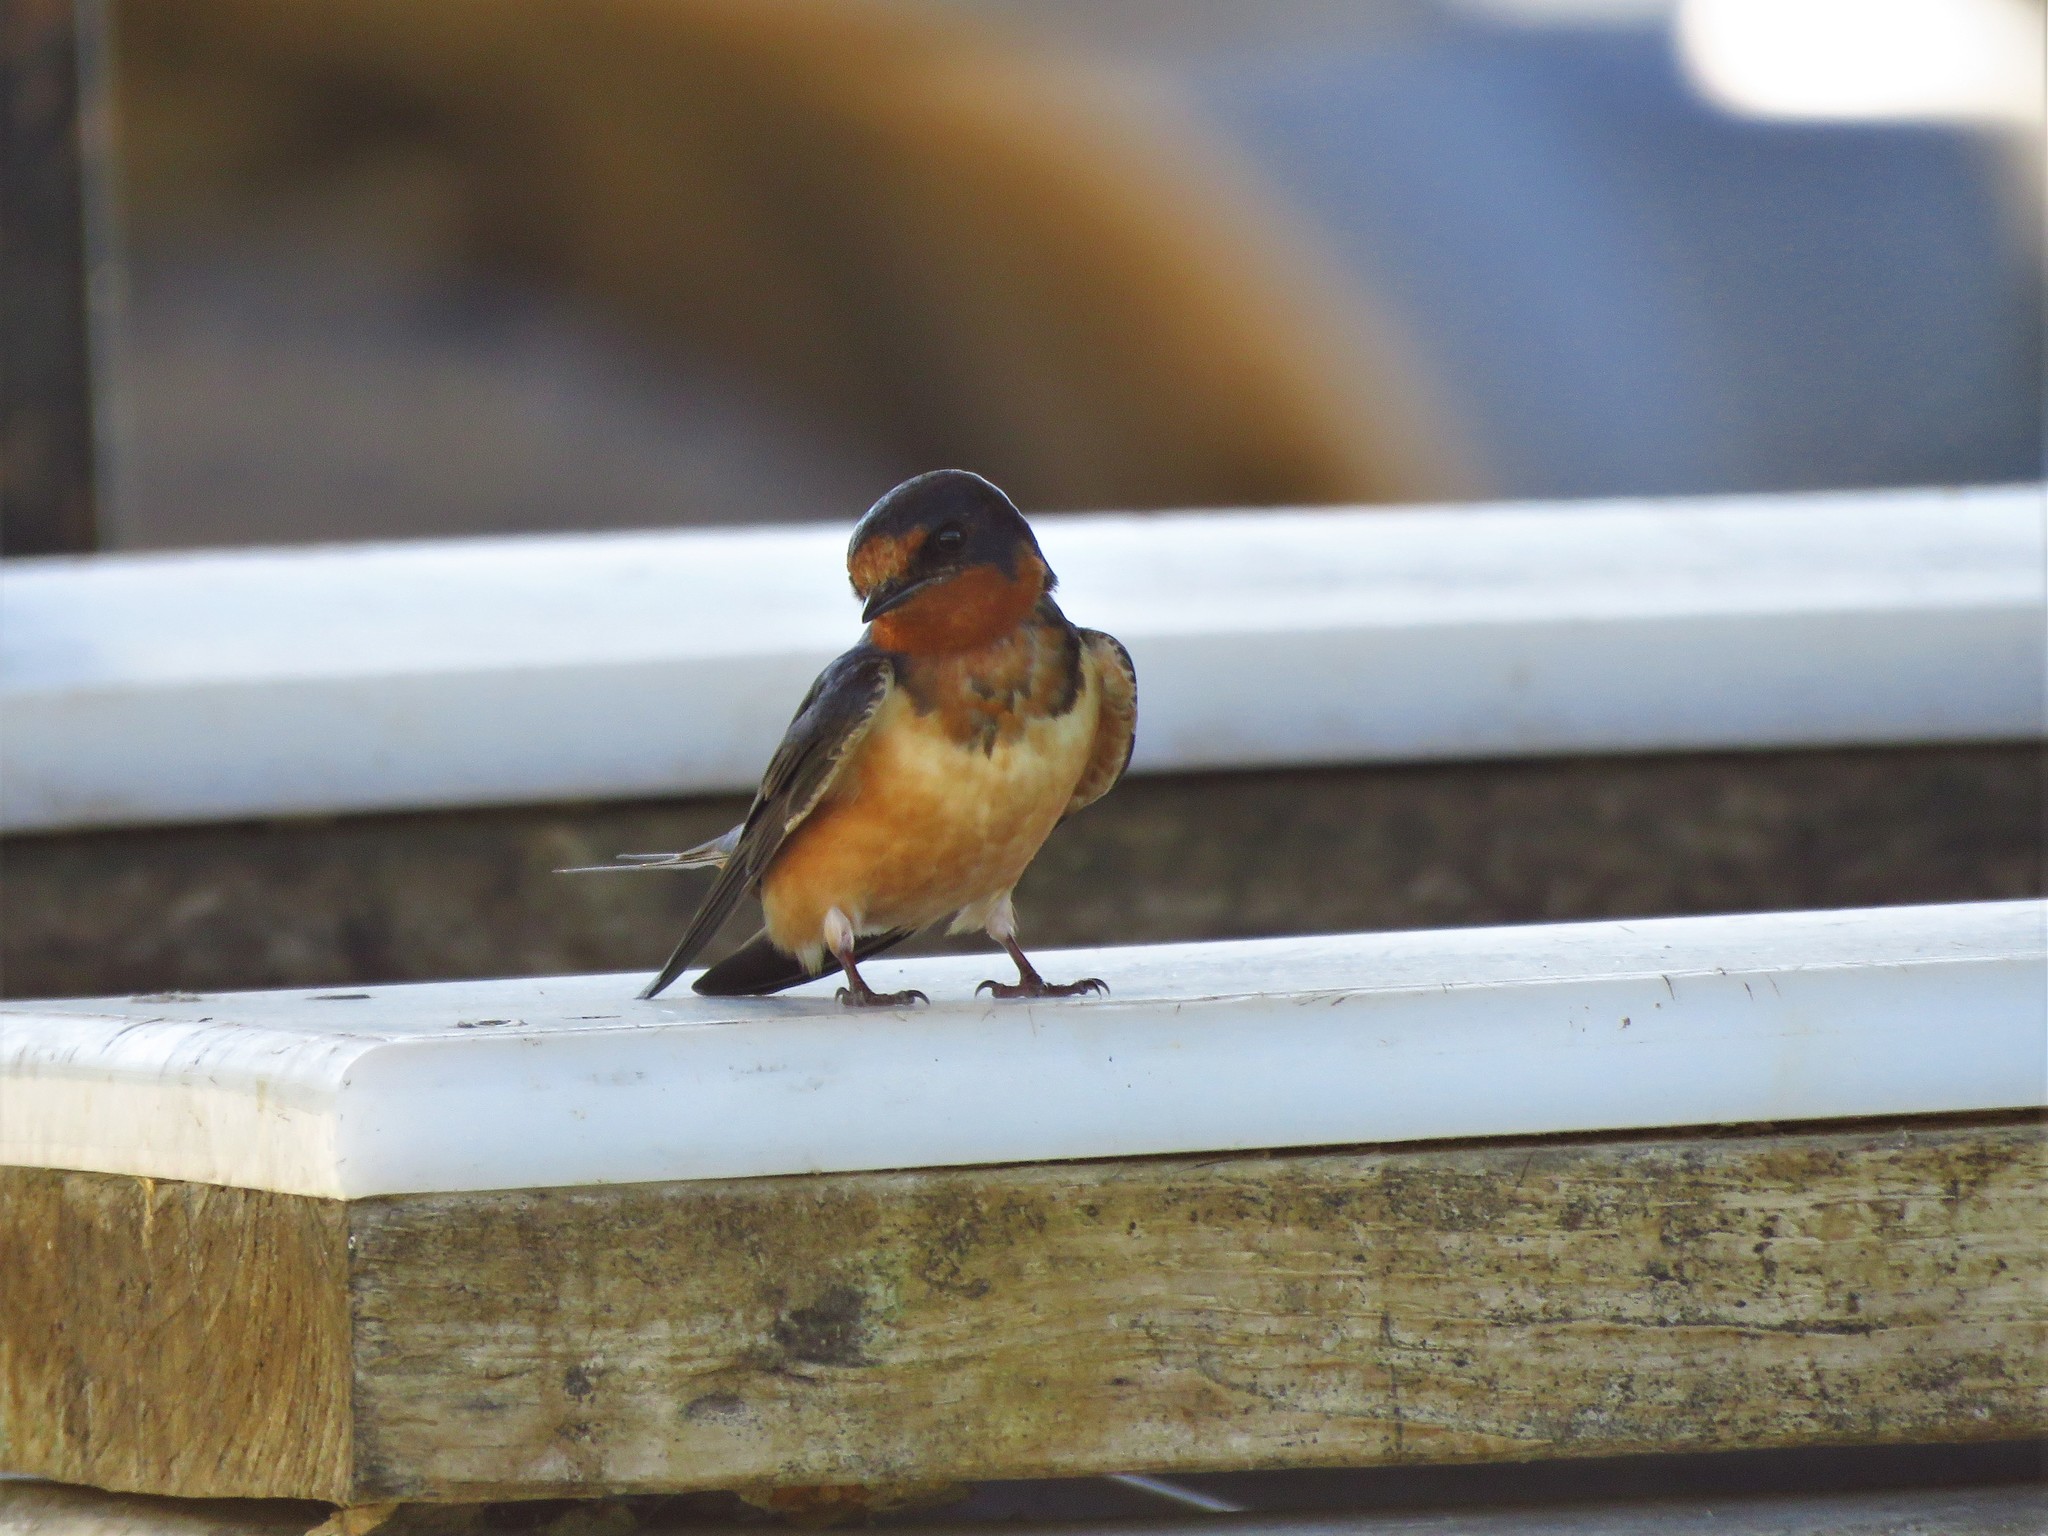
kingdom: Animalia
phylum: Chordata
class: Aves
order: Passeriformes
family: Hirundinidae
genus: Hirundo
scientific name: Hirundo rustica
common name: Barn swallow
